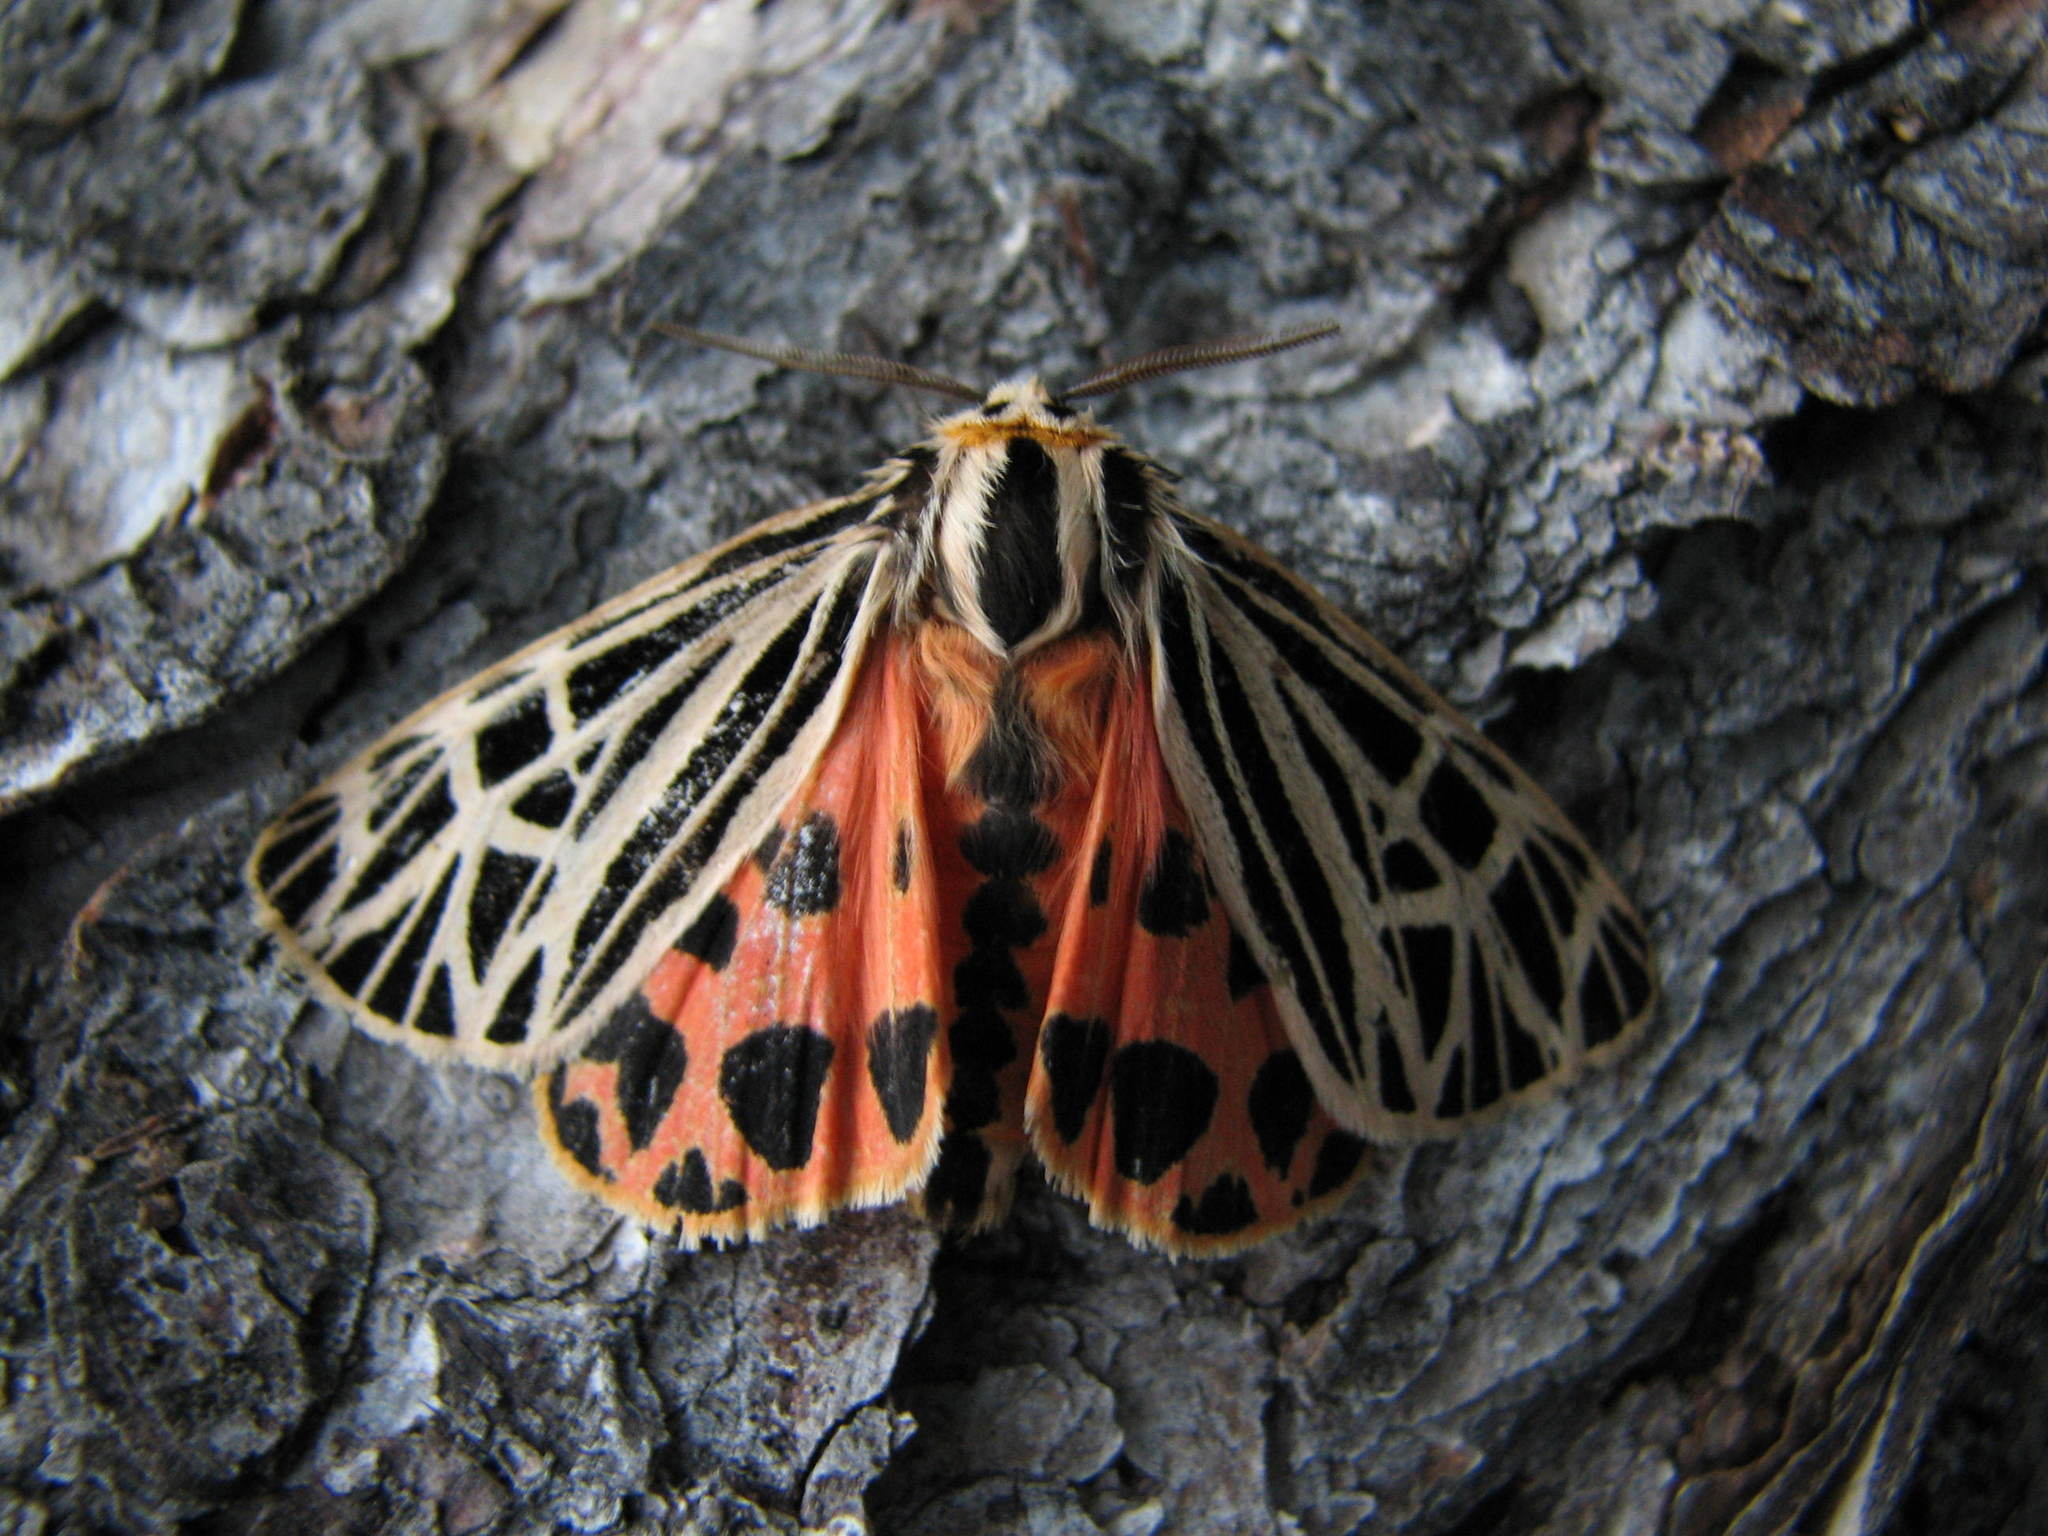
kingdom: Animalia
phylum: Arthropoda
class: Insecta
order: Lepidoptera
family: Erebidae
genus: Grammia
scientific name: Grammia virgo
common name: Virgin tiger moth
